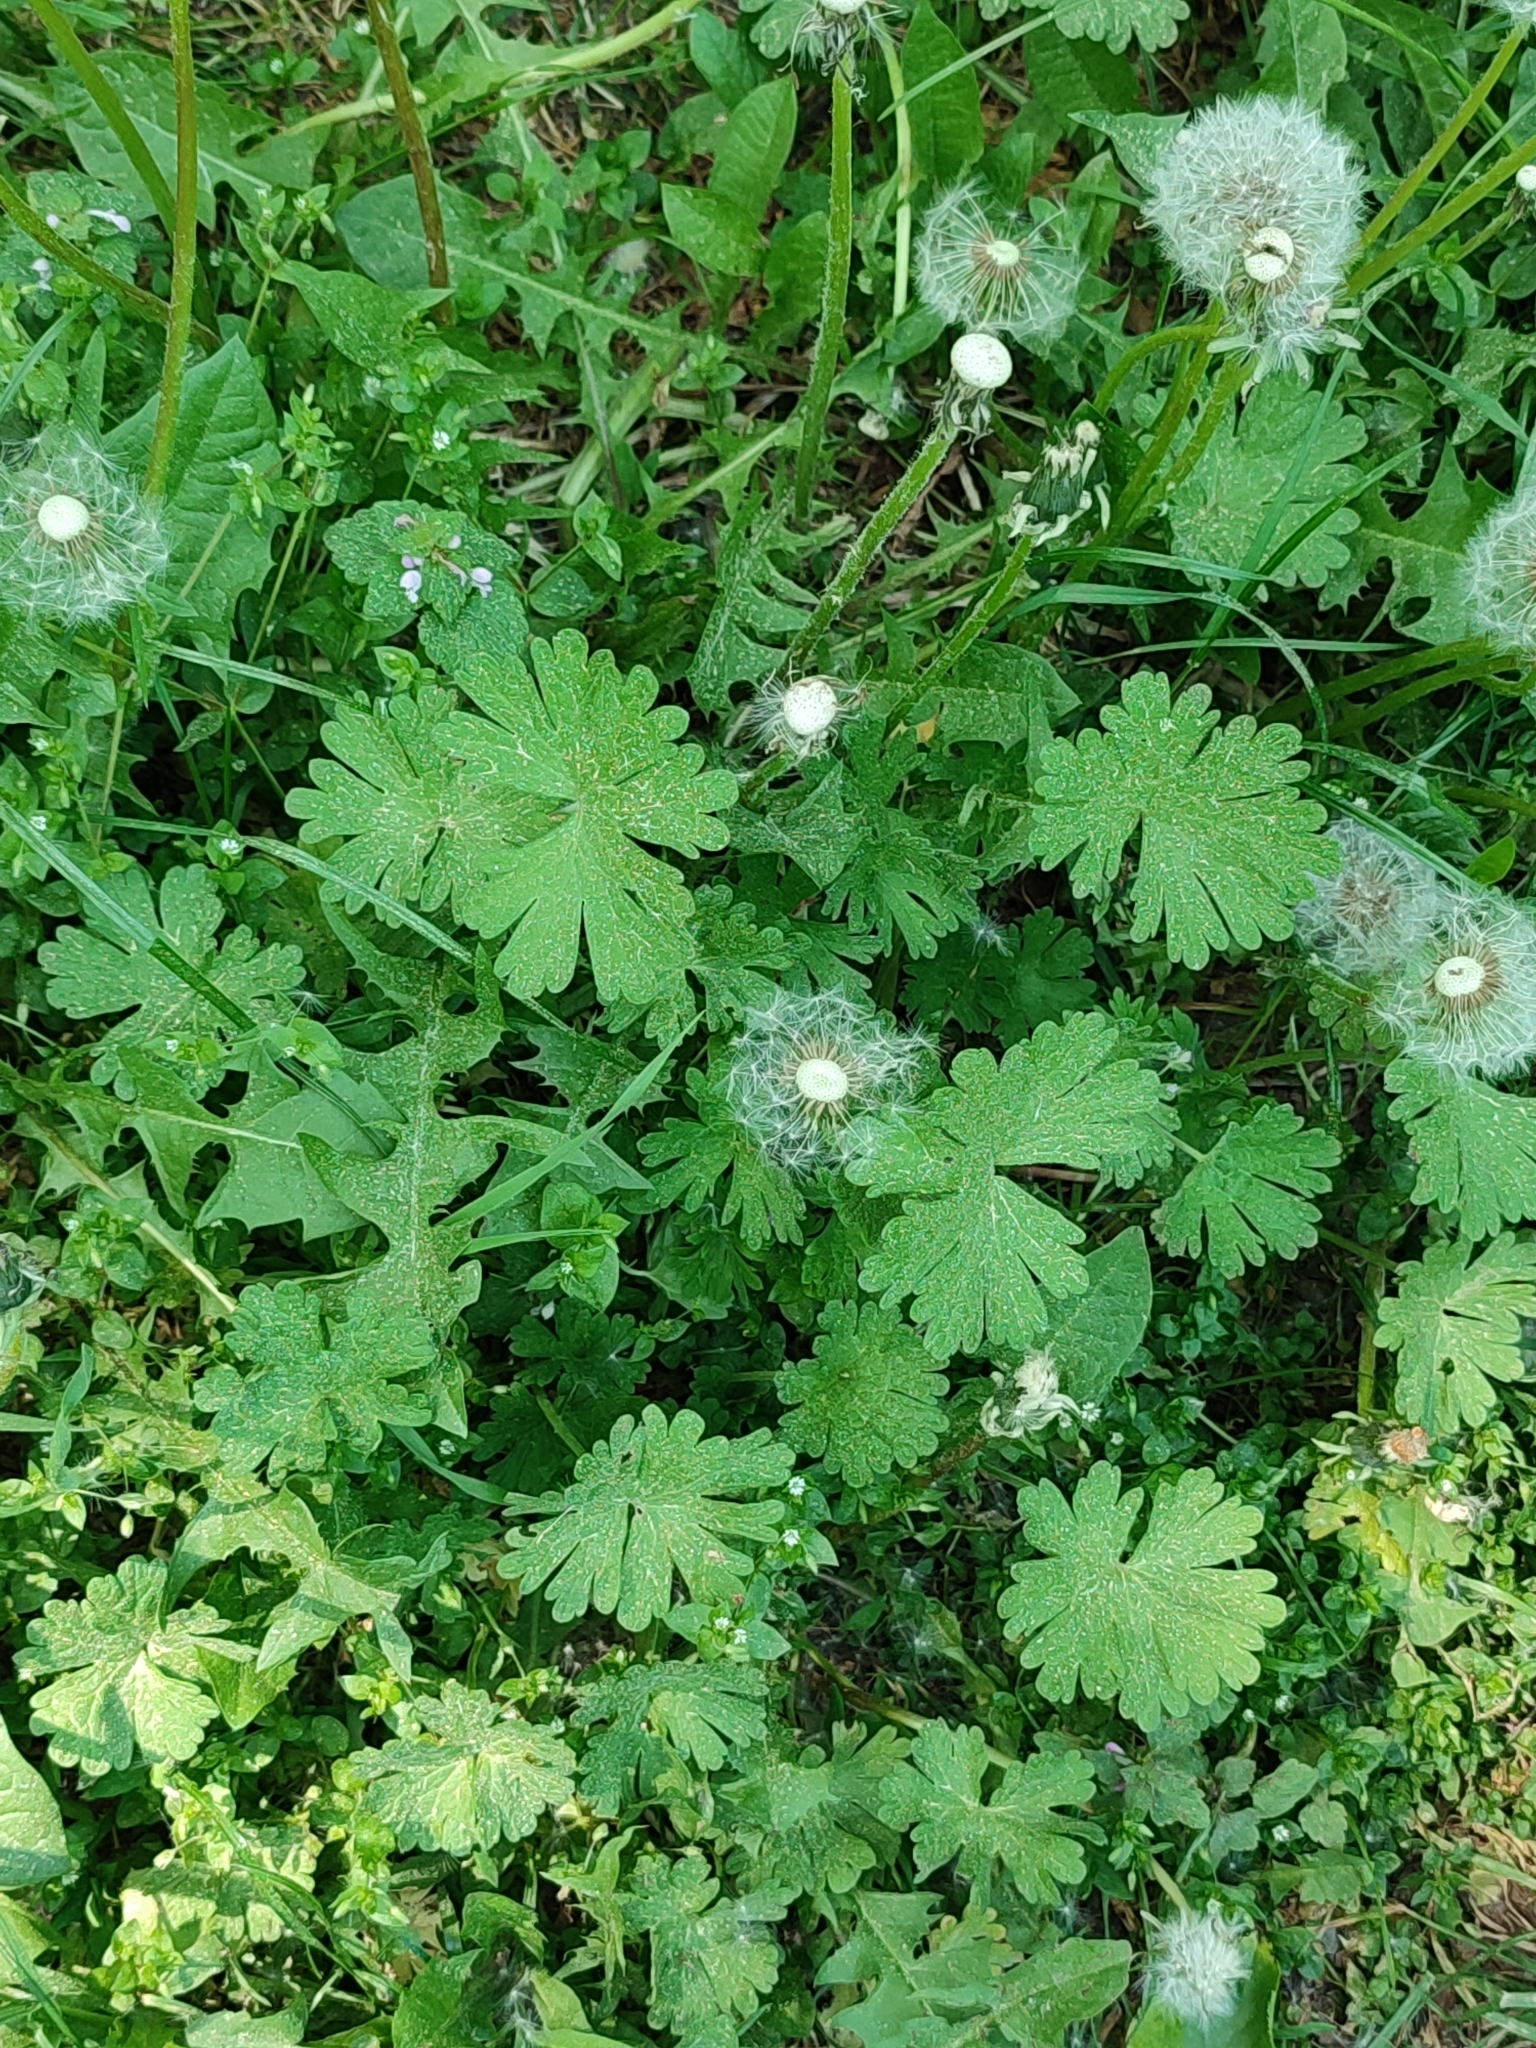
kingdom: Plantae
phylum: Tracheophyta
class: Magnoliopsida
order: Geraniales
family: Geraniaceae
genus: Geranium
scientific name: Geranium pusillum
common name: Small geranium
